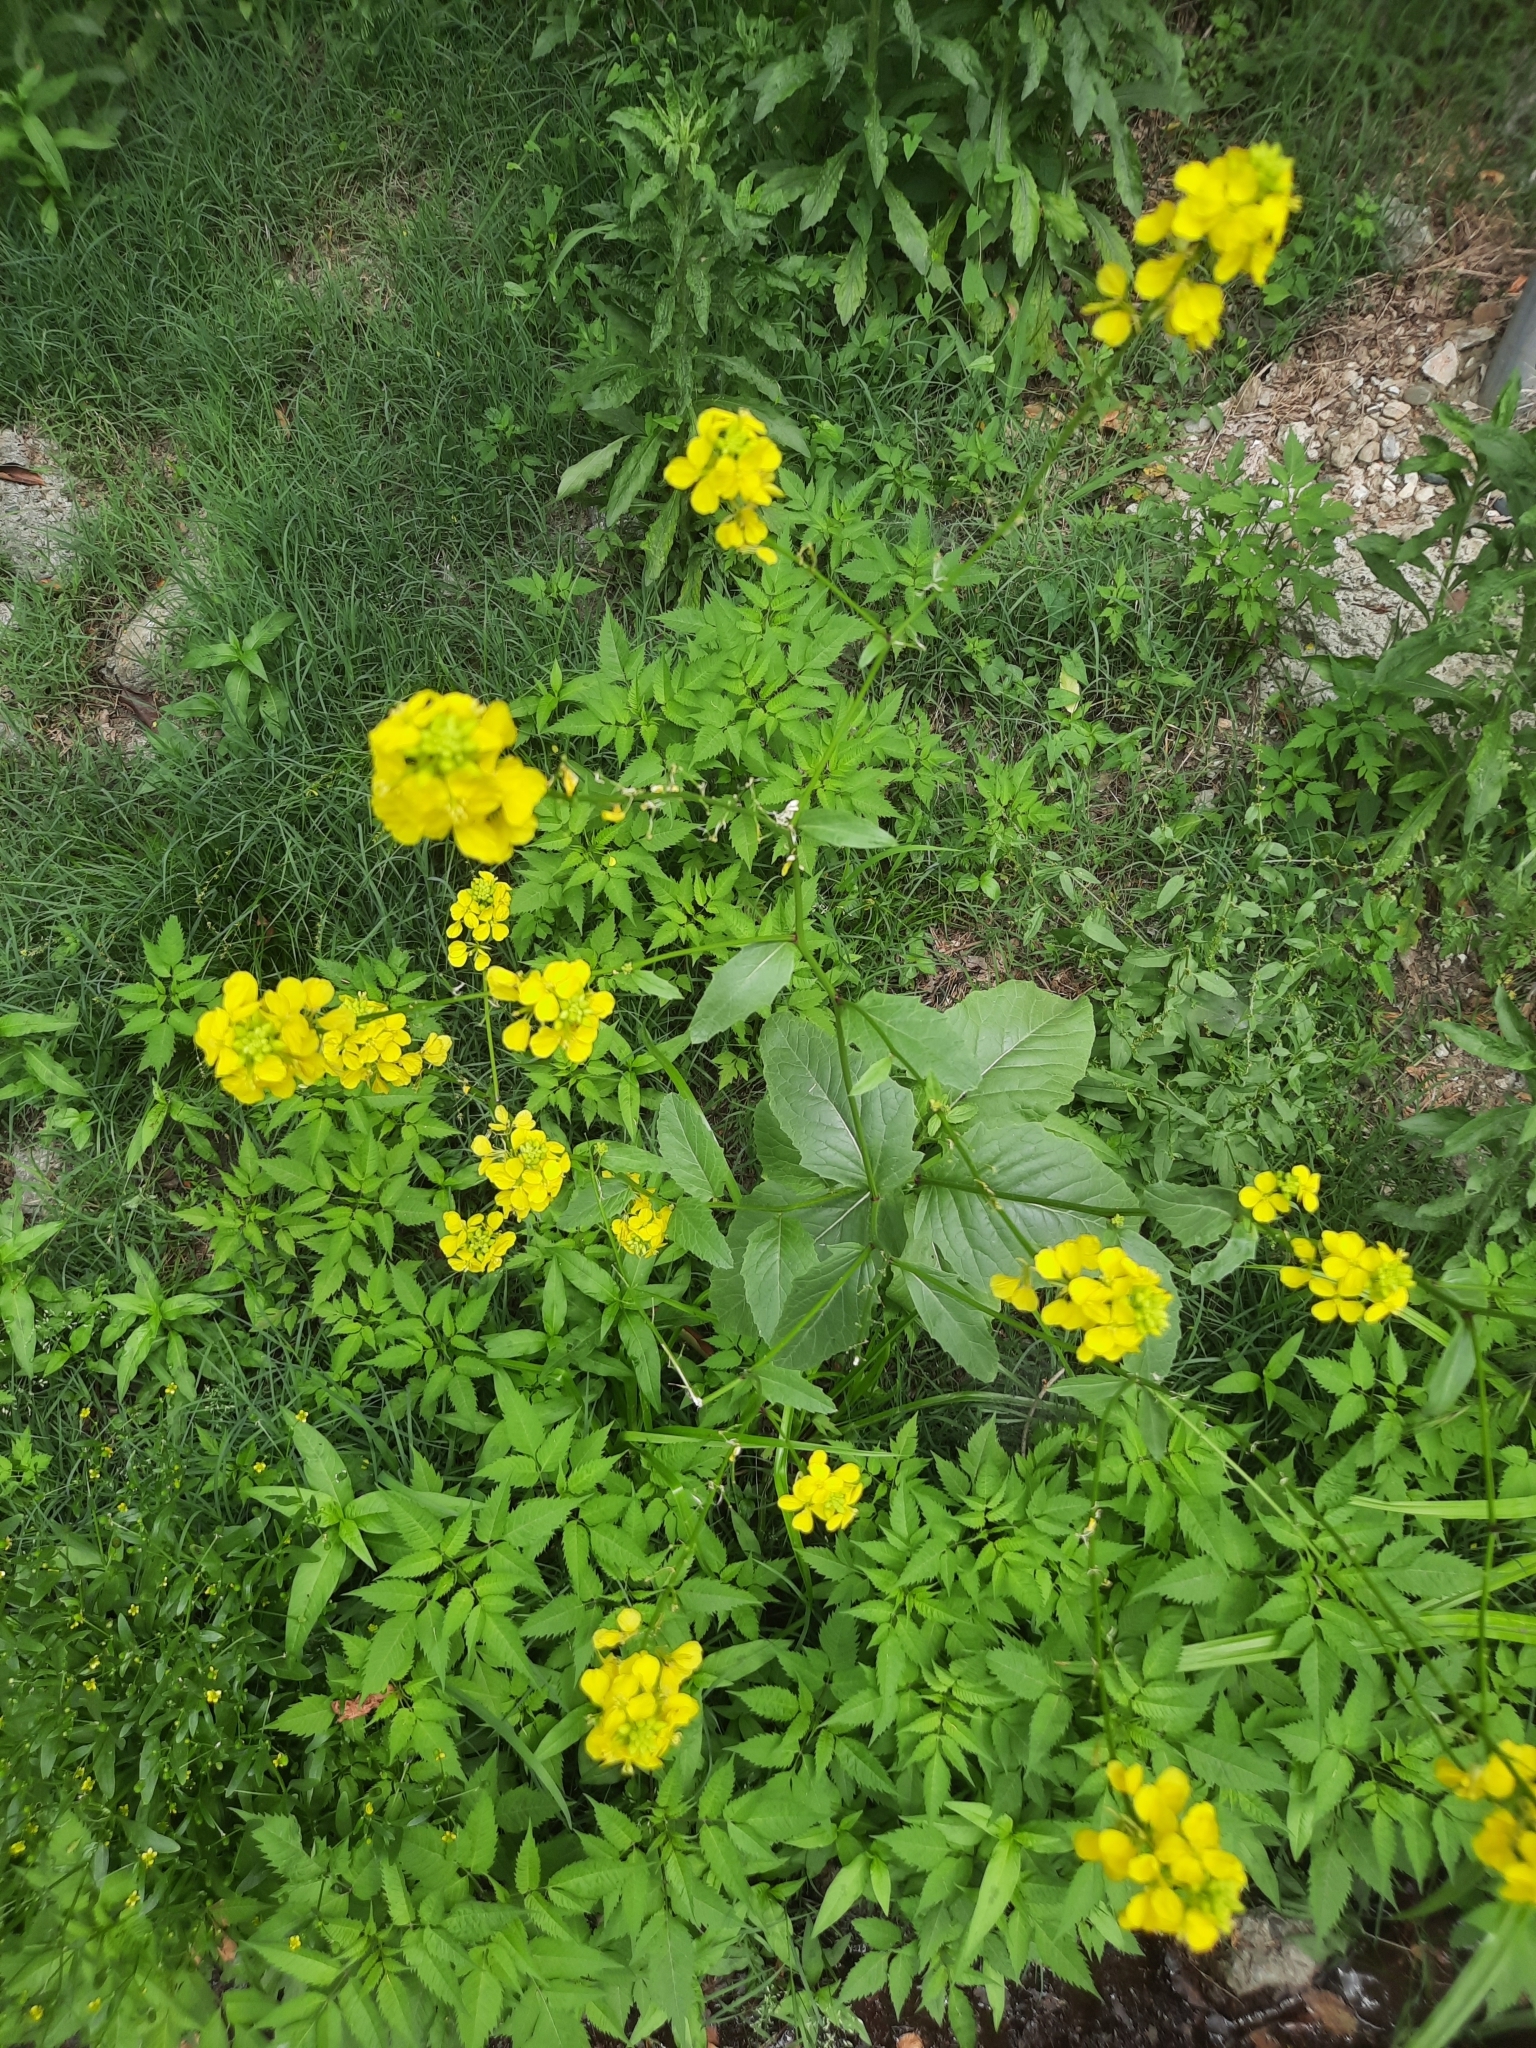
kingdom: Plantae
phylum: Tracheophyta
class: Magnoliopsida
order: Brassicales
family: Brassicaceae
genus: Sinapis
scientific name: Sinapis arvensis
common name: Charlock
